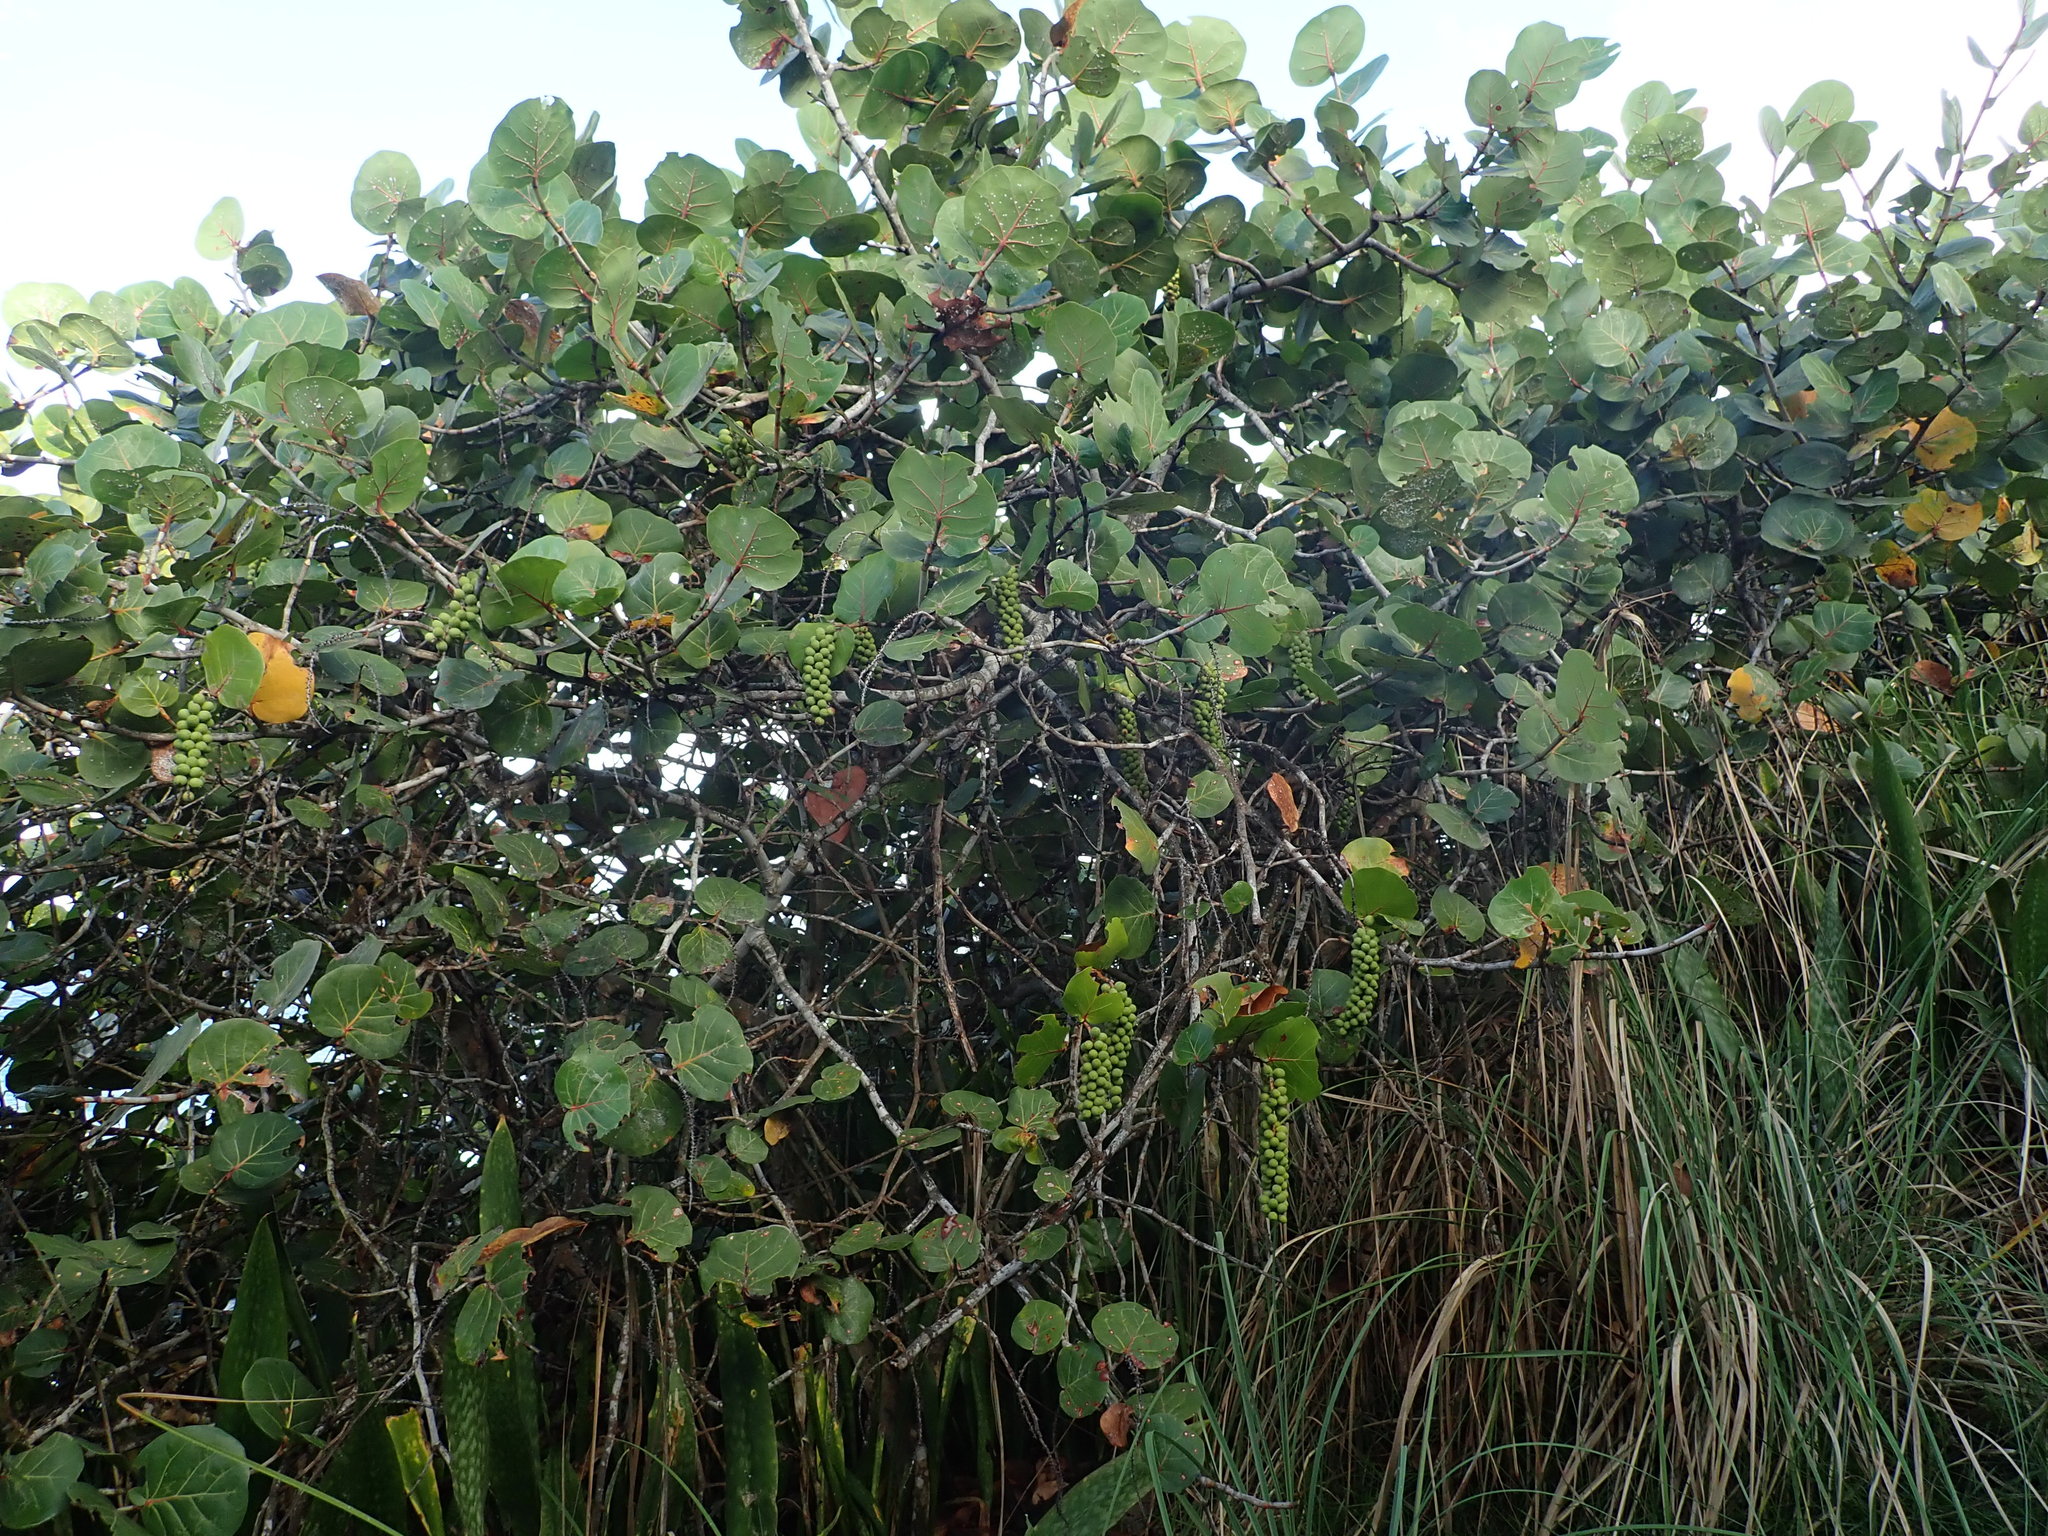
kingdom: Plantae
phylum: Tracheophyta
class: Magnoliopsida
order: Caryophyllales
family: Polygonaceae
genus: Coccoloba
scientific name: Coccoloba uvifera
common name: Seagrape
